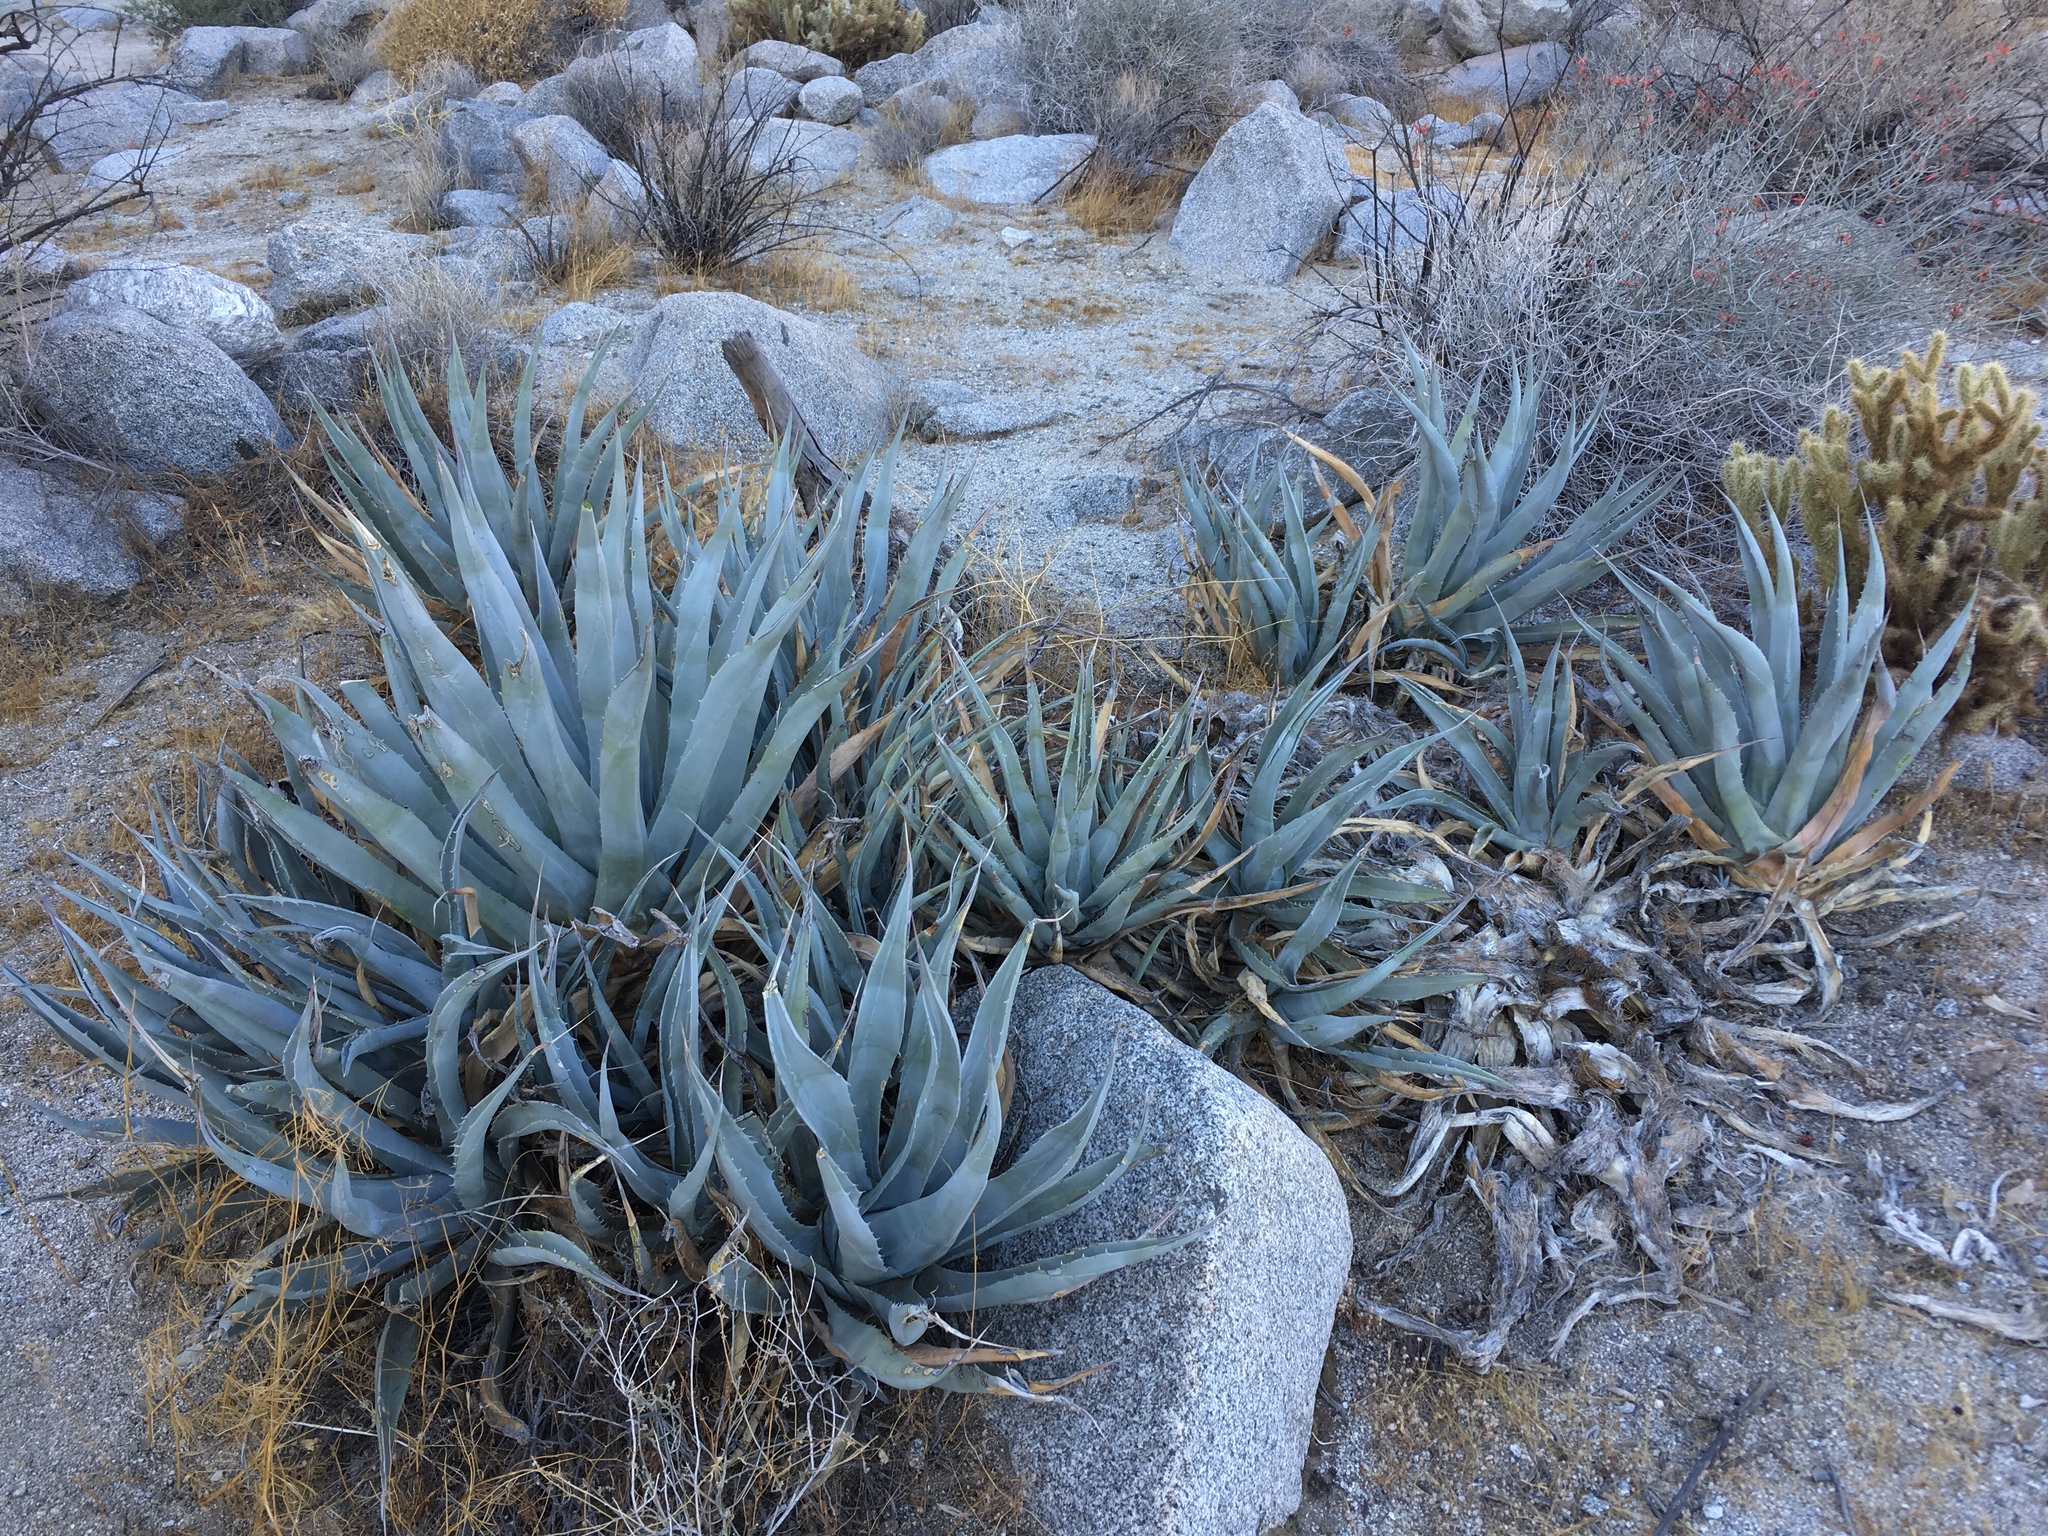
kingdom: Plantae
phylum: Tracheophyta
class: Liliopsida
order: Asparagales
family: Asparagaceae
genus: Agave
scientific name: Agave deserti
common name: Desert agave
